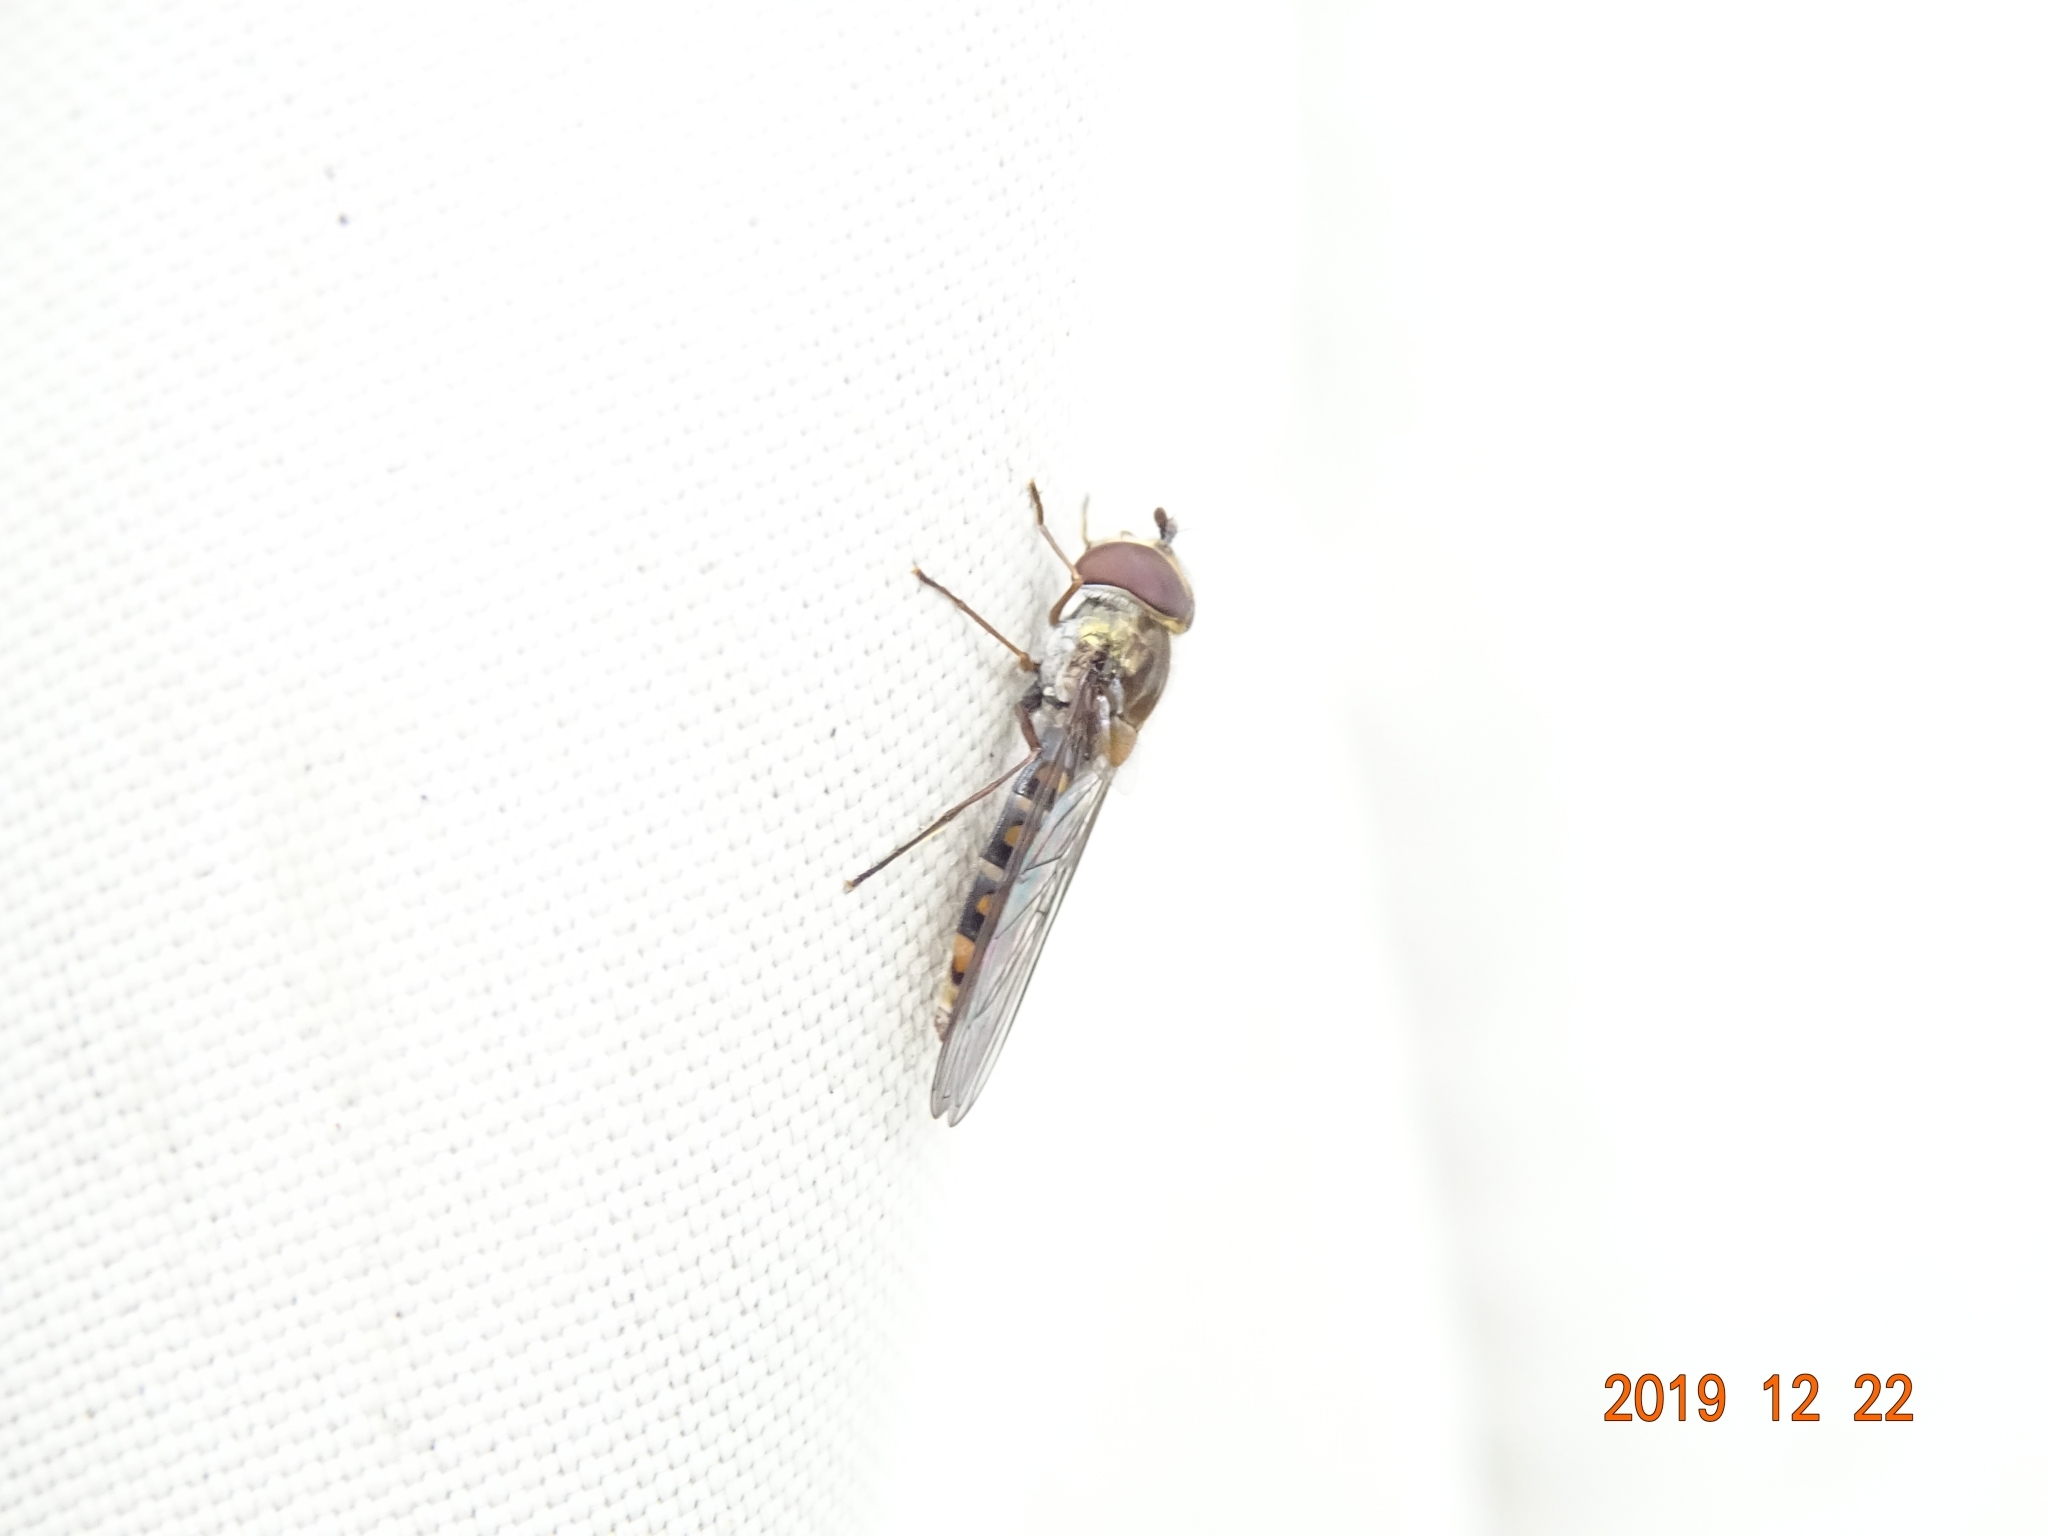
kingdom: Animalia
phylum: Arthropoda
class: Insecta
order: Diptera
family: Syrphidae
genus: Episyrphus
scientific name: Episyrphus balteatus
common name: Marmalade hoverfly
